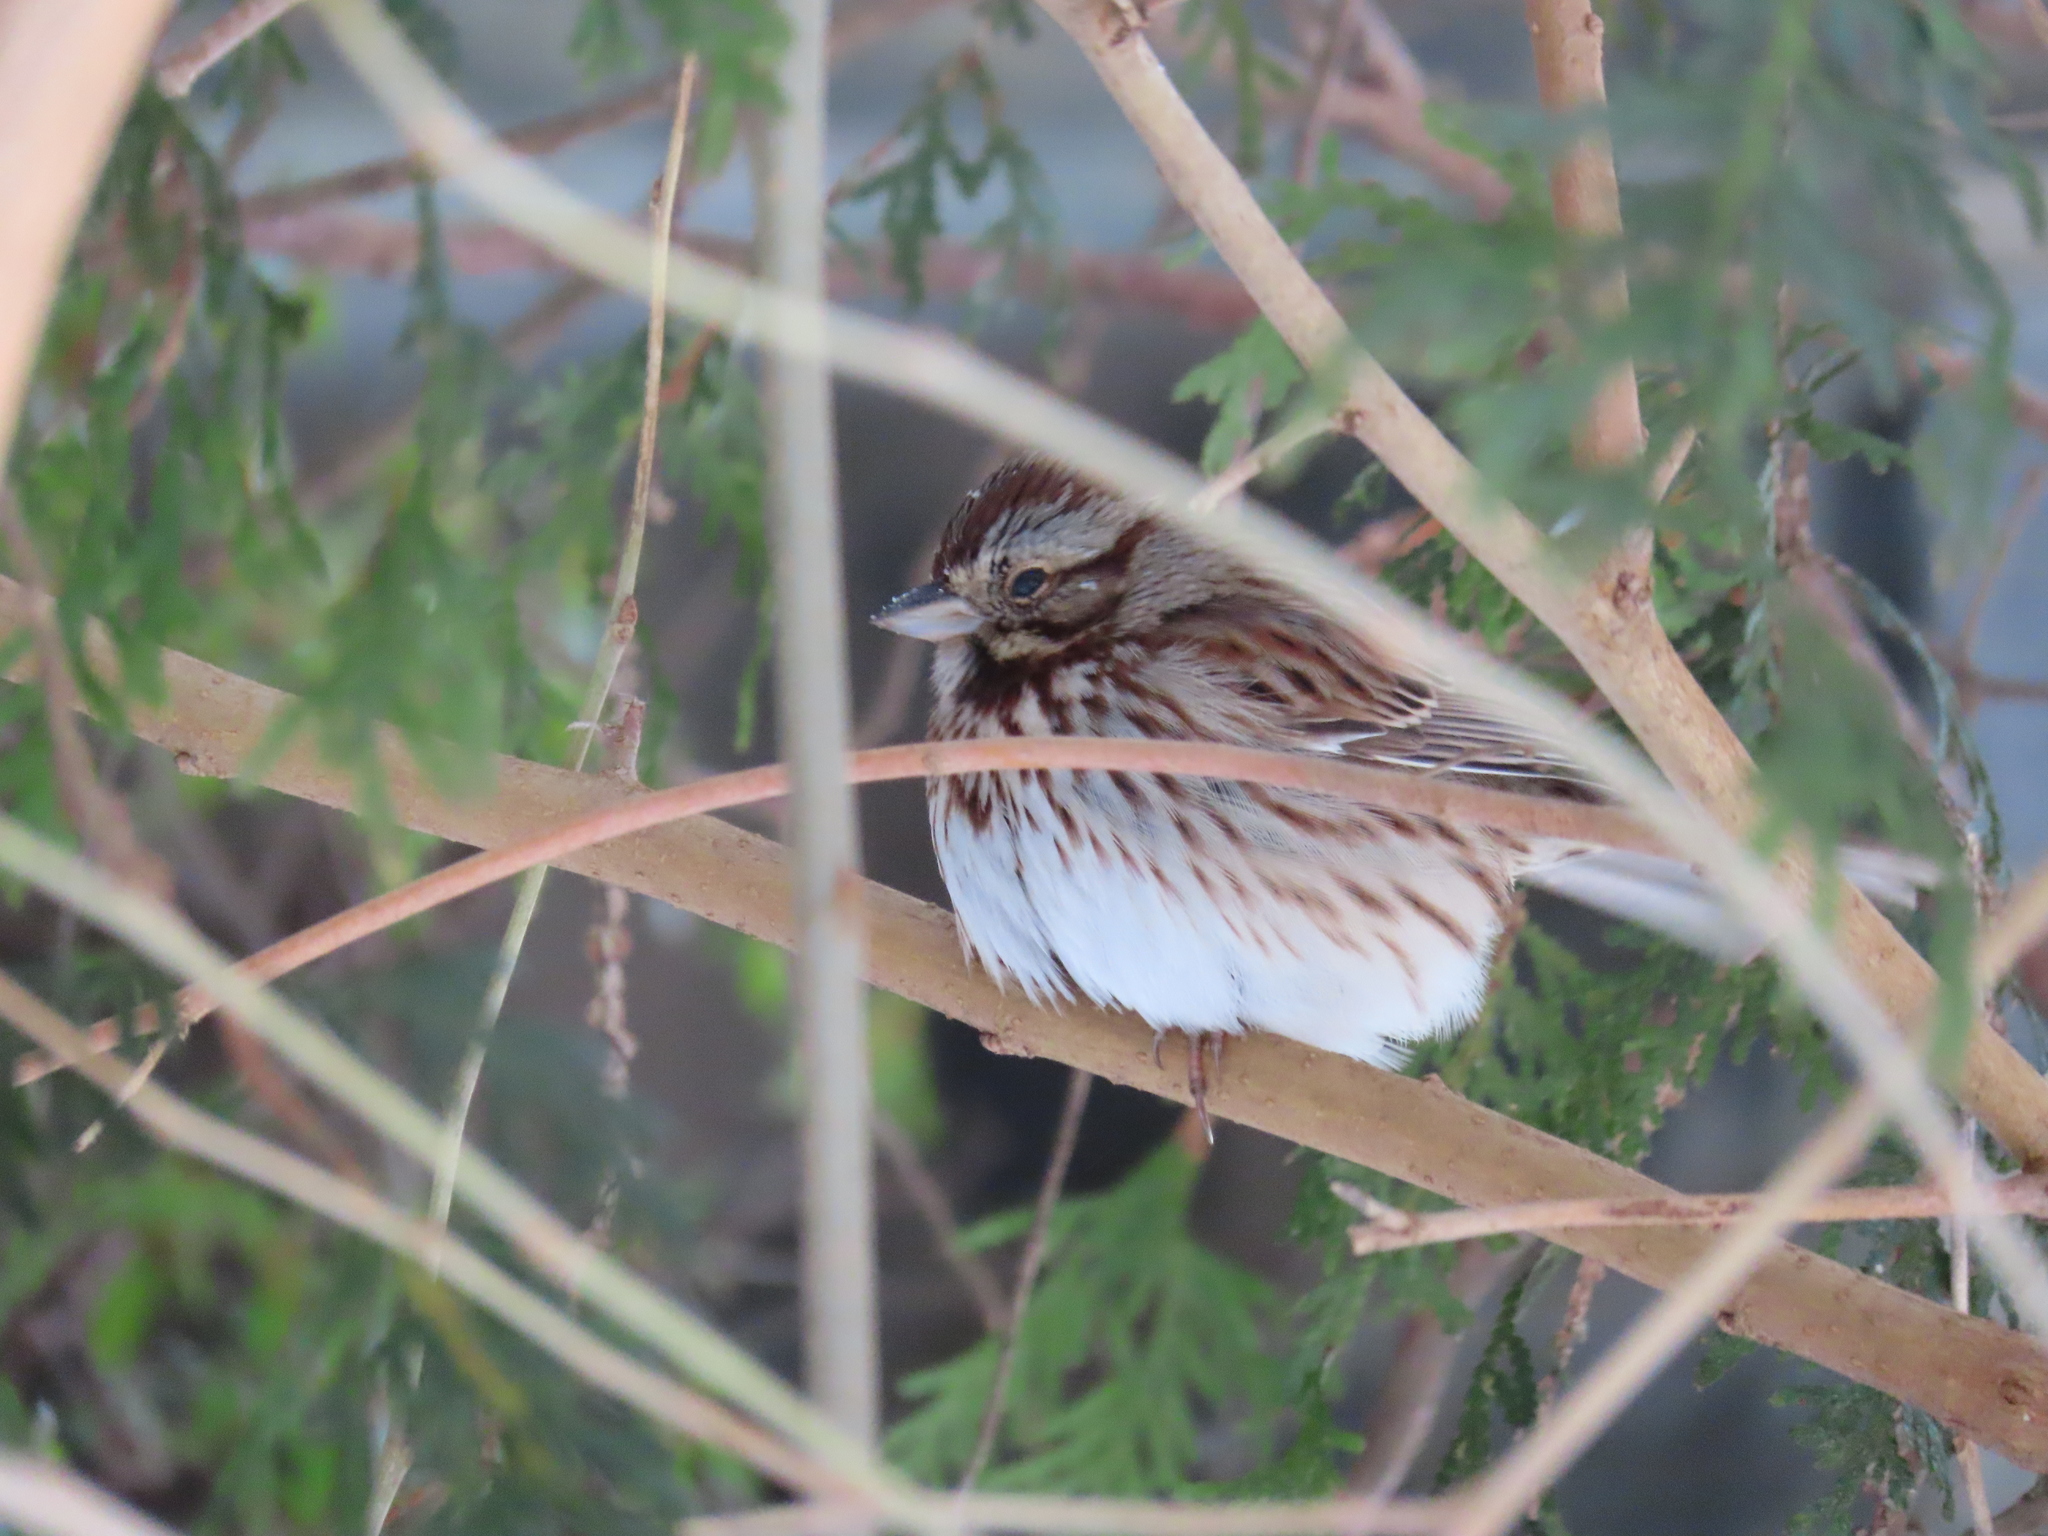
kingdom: Animalia
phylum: Chordata
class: Aves
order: Passeriformes
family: Passerellidae
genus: Melospiza
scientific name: Melospiza melodia
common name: Song sparrow
